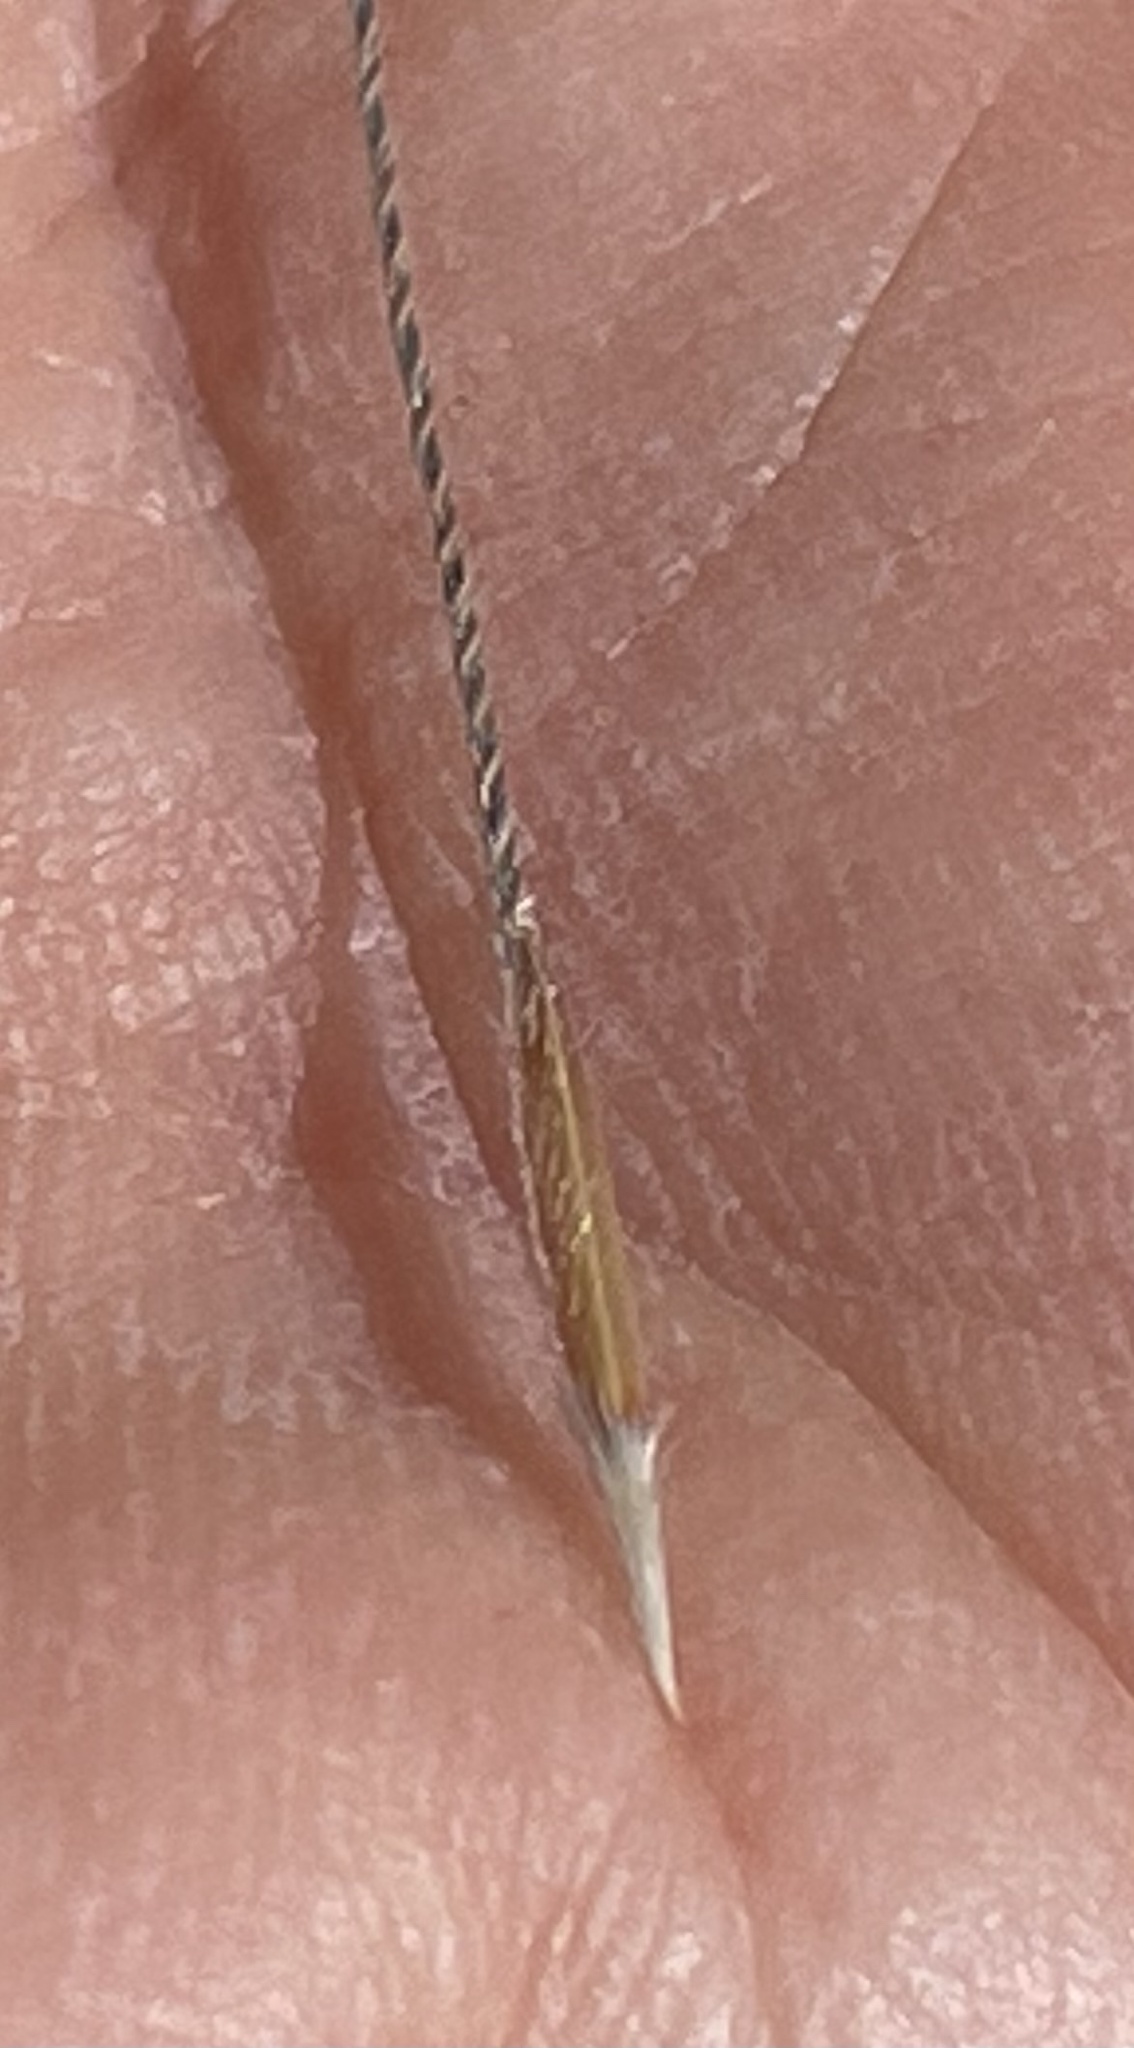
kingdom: Plantae
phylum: Tracheophyta
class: Liliopsida
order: Poales
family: Poaceae
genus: Hesperostipa
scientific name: Hesperostipa comata
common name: Needle-and-thread grass
